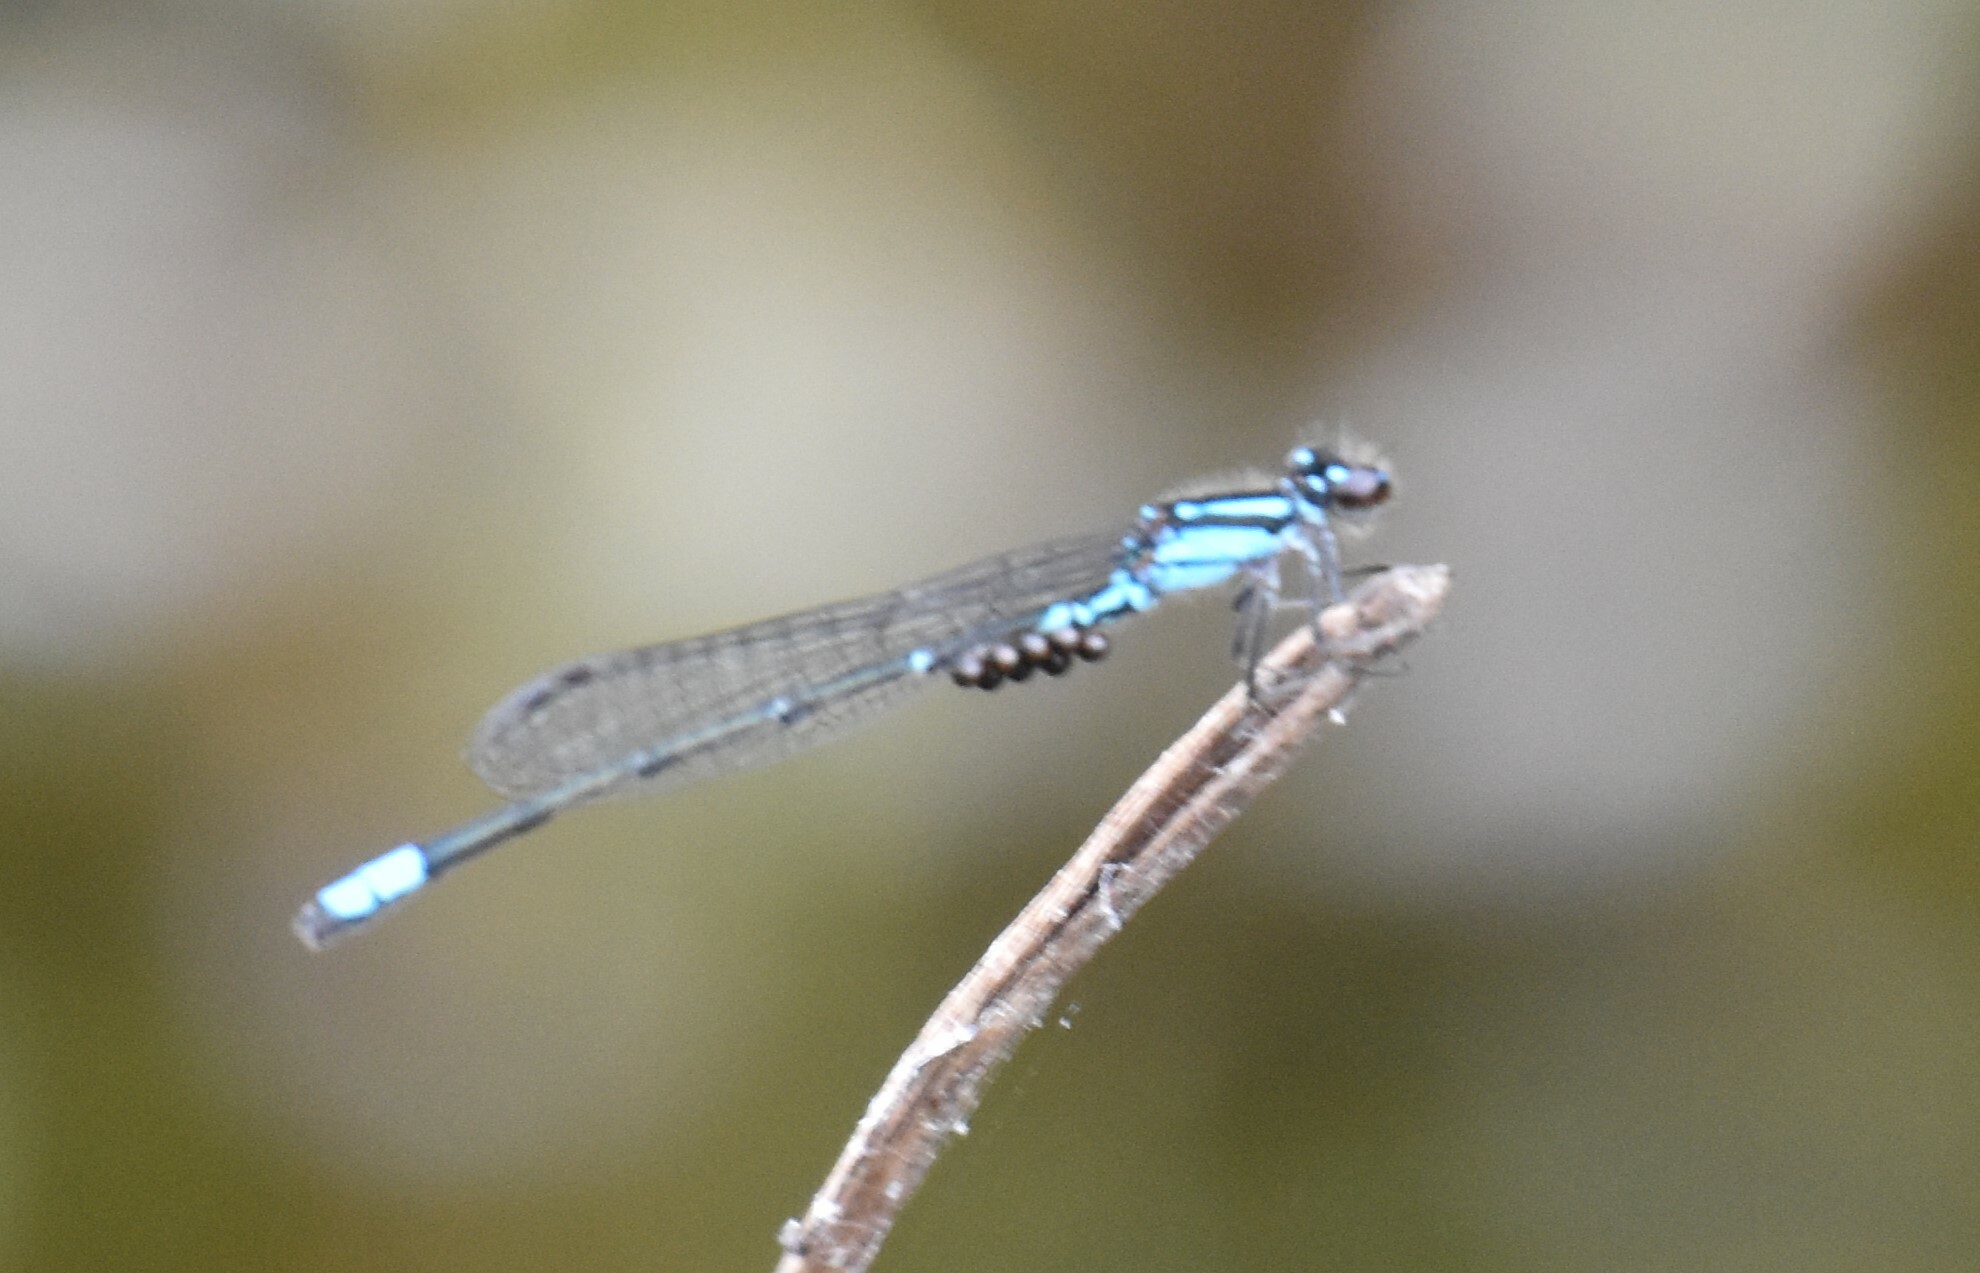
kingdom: Animalia
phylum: Arthropoda
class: Insecta
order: Odonata
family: Coenagrionidae
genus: Enallagma
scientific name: Enallagma geminatum
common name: Skimming bluet
